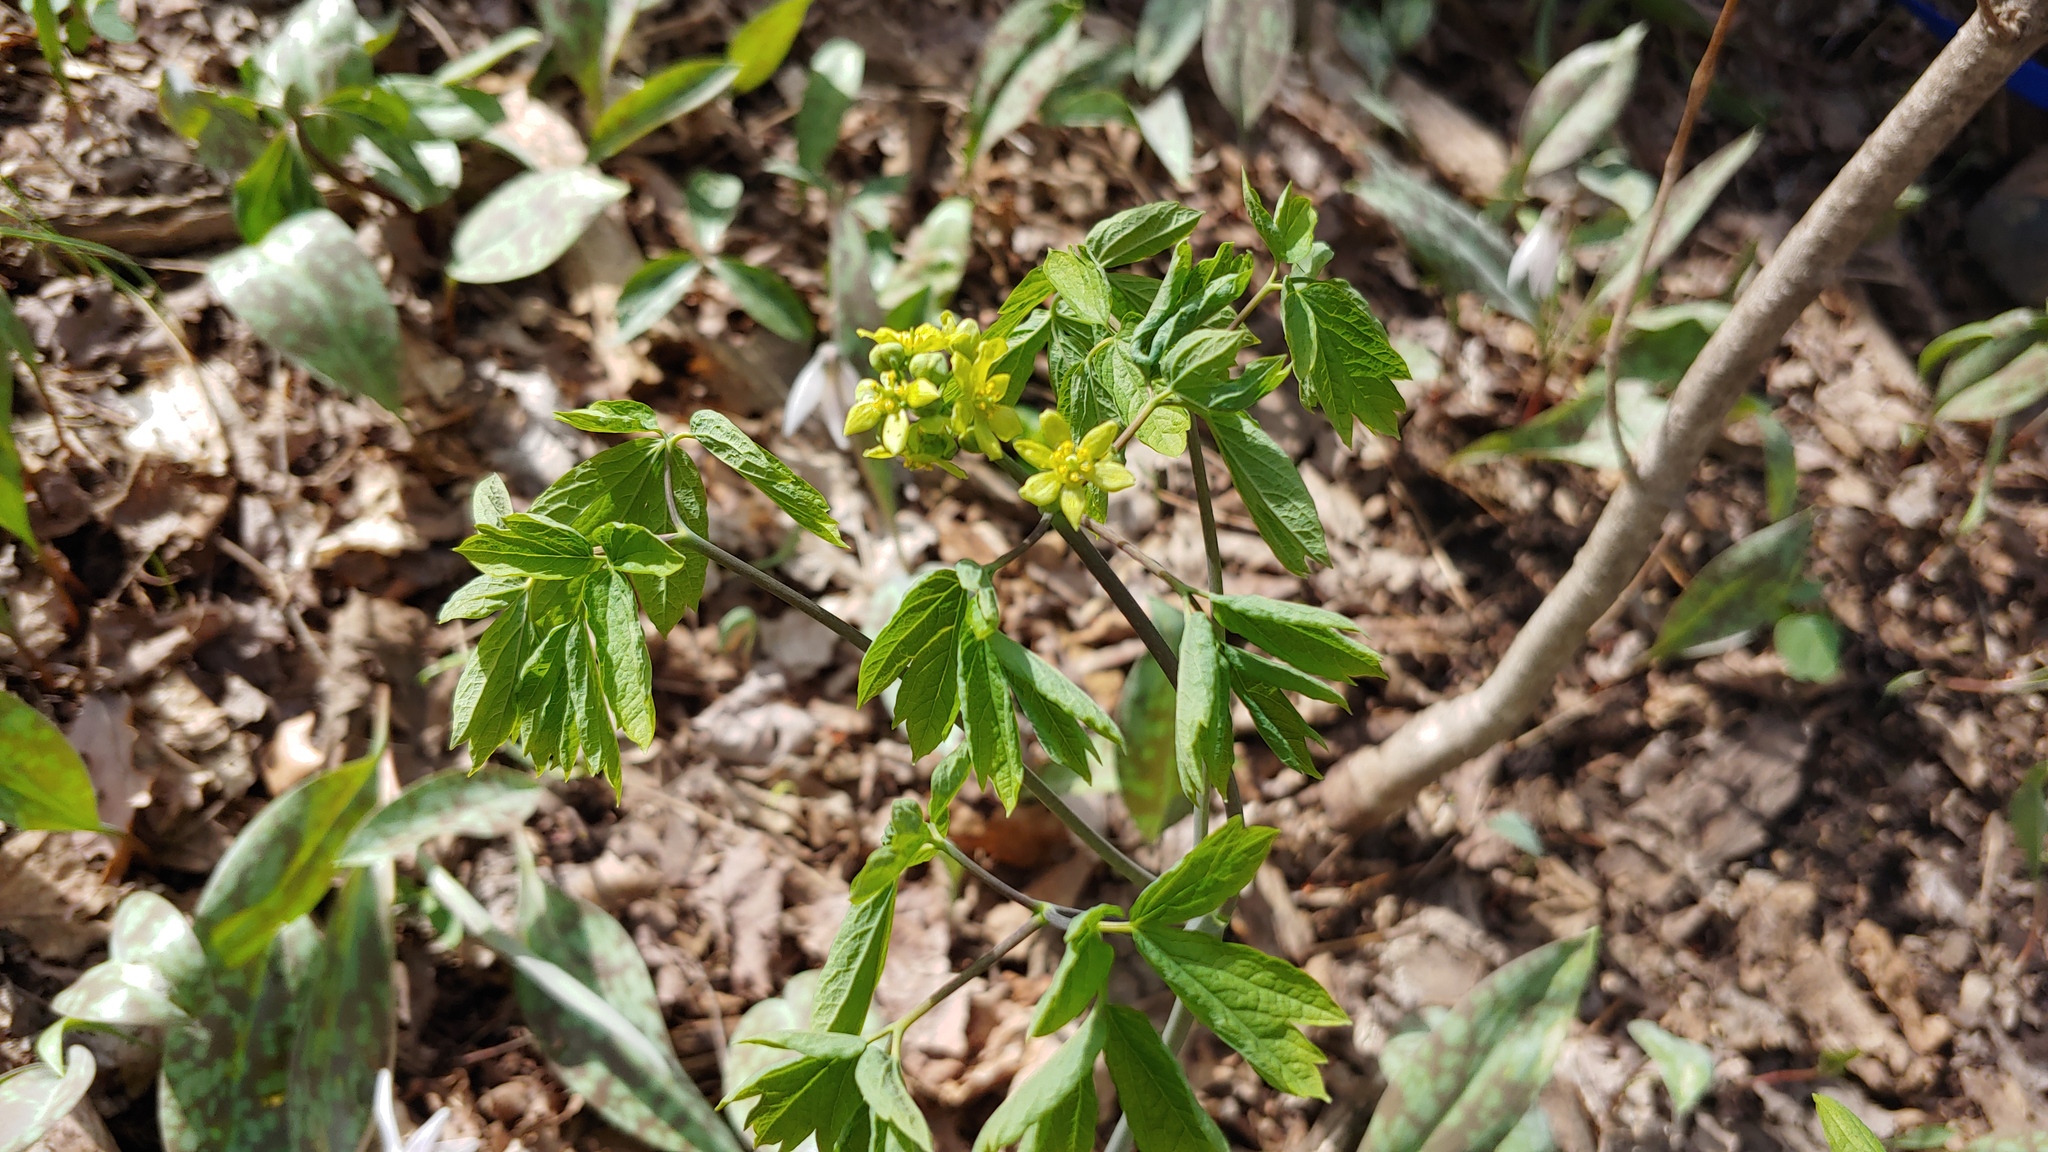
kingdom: Plantae
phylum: Tracheophyta
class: Magnoliopsida
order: Ranunculales
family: Berberidaceae
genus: Caulophyllum
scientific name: Caulophyllum thalictroides
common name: Blue cohosh
